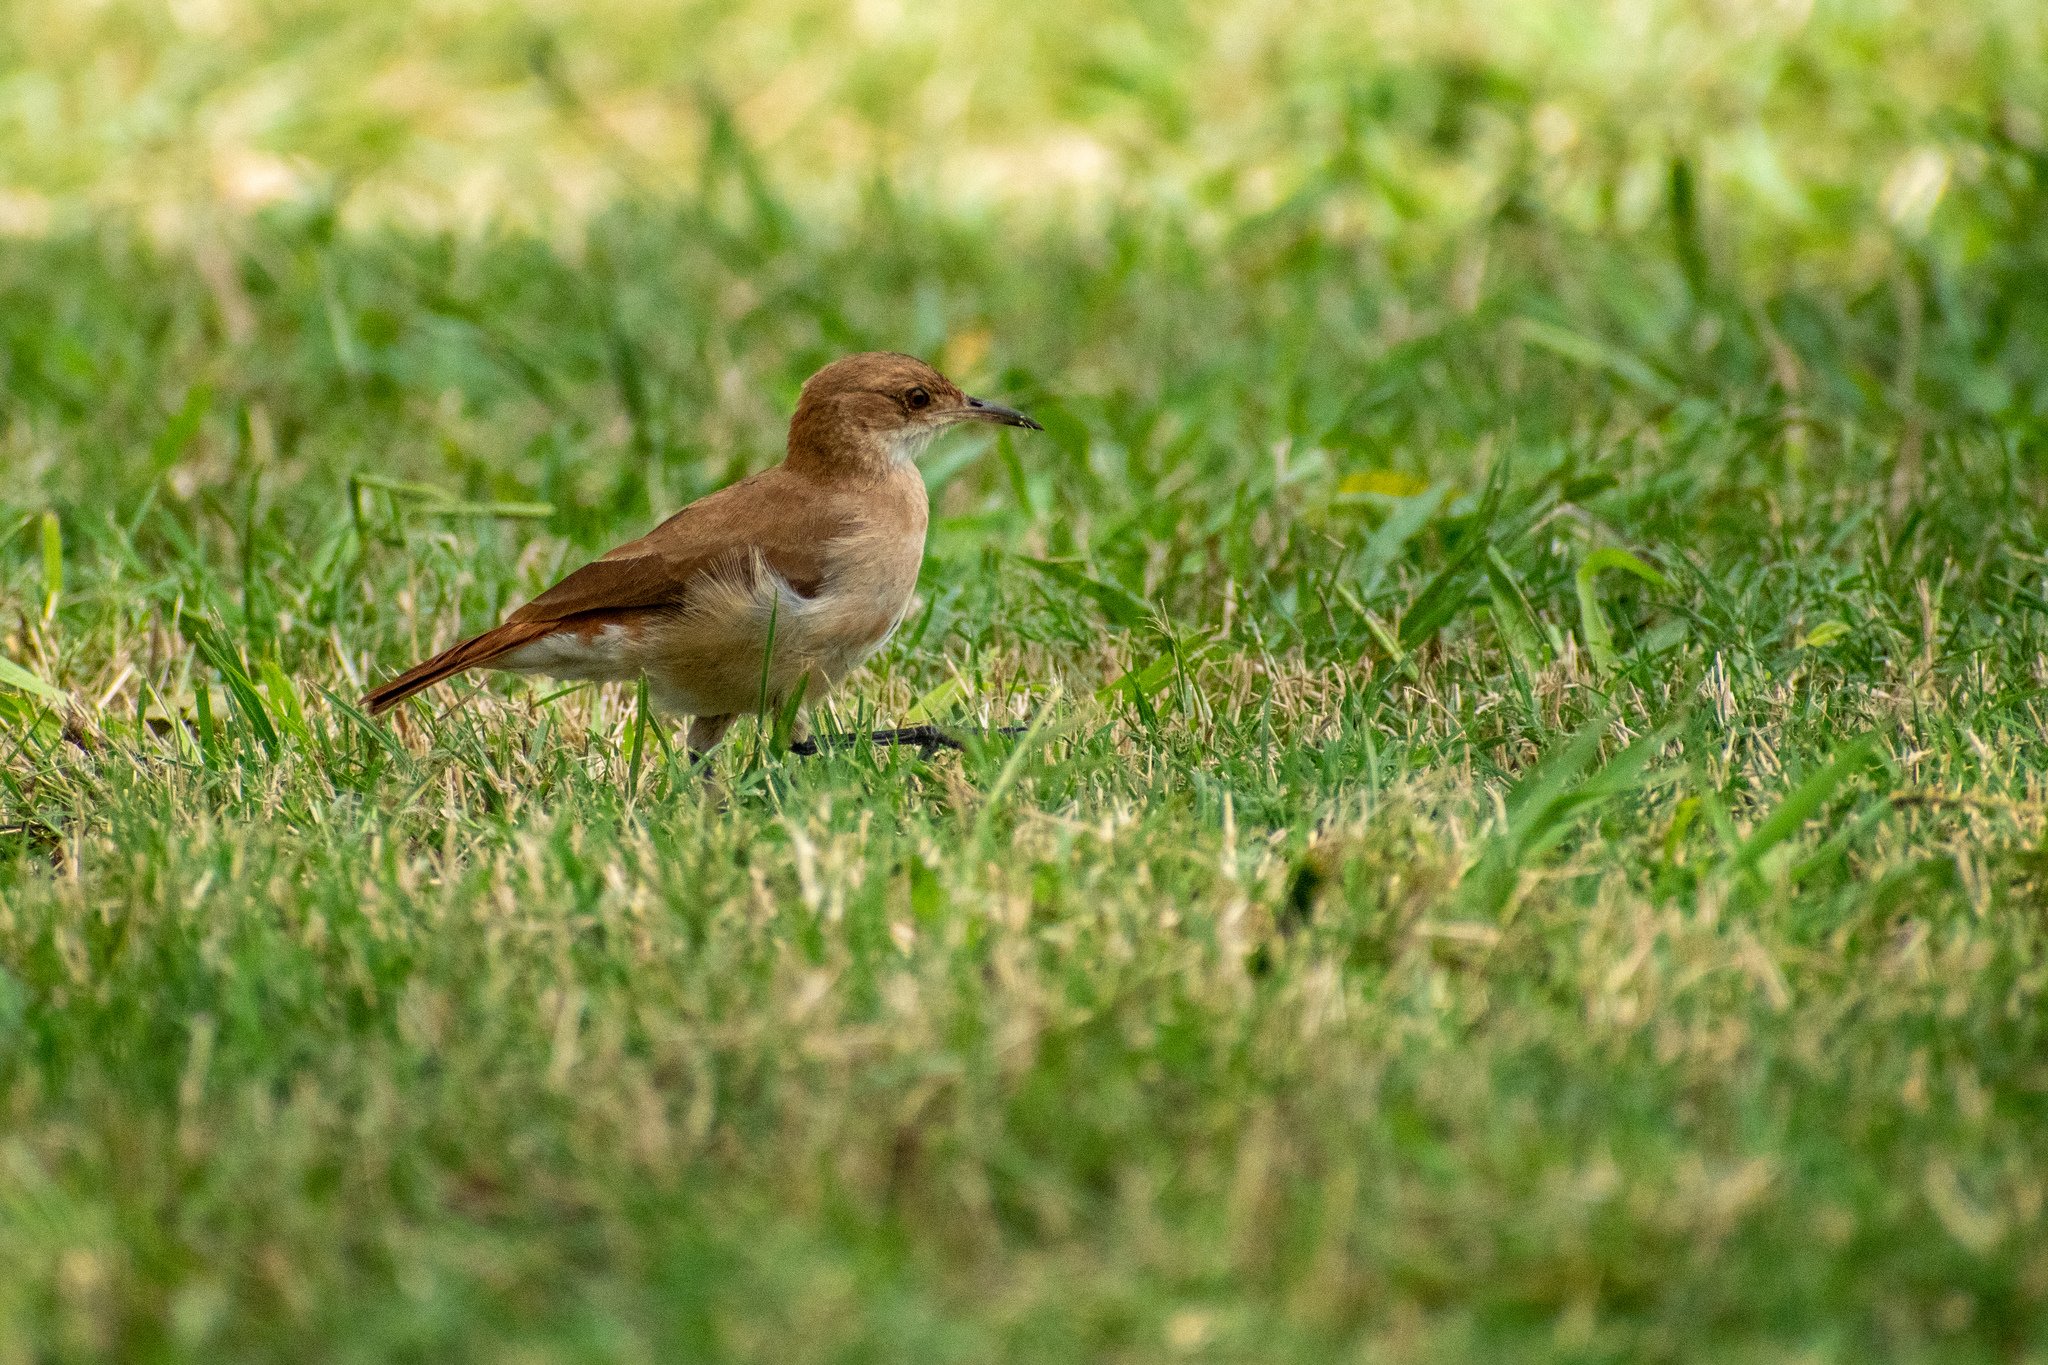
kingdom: Animalia
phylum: Chordata
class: Aves
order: Passeriformes
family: Furnariidae
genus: Furnarius
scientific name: Furnarius rufus
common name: Rufous hornero
